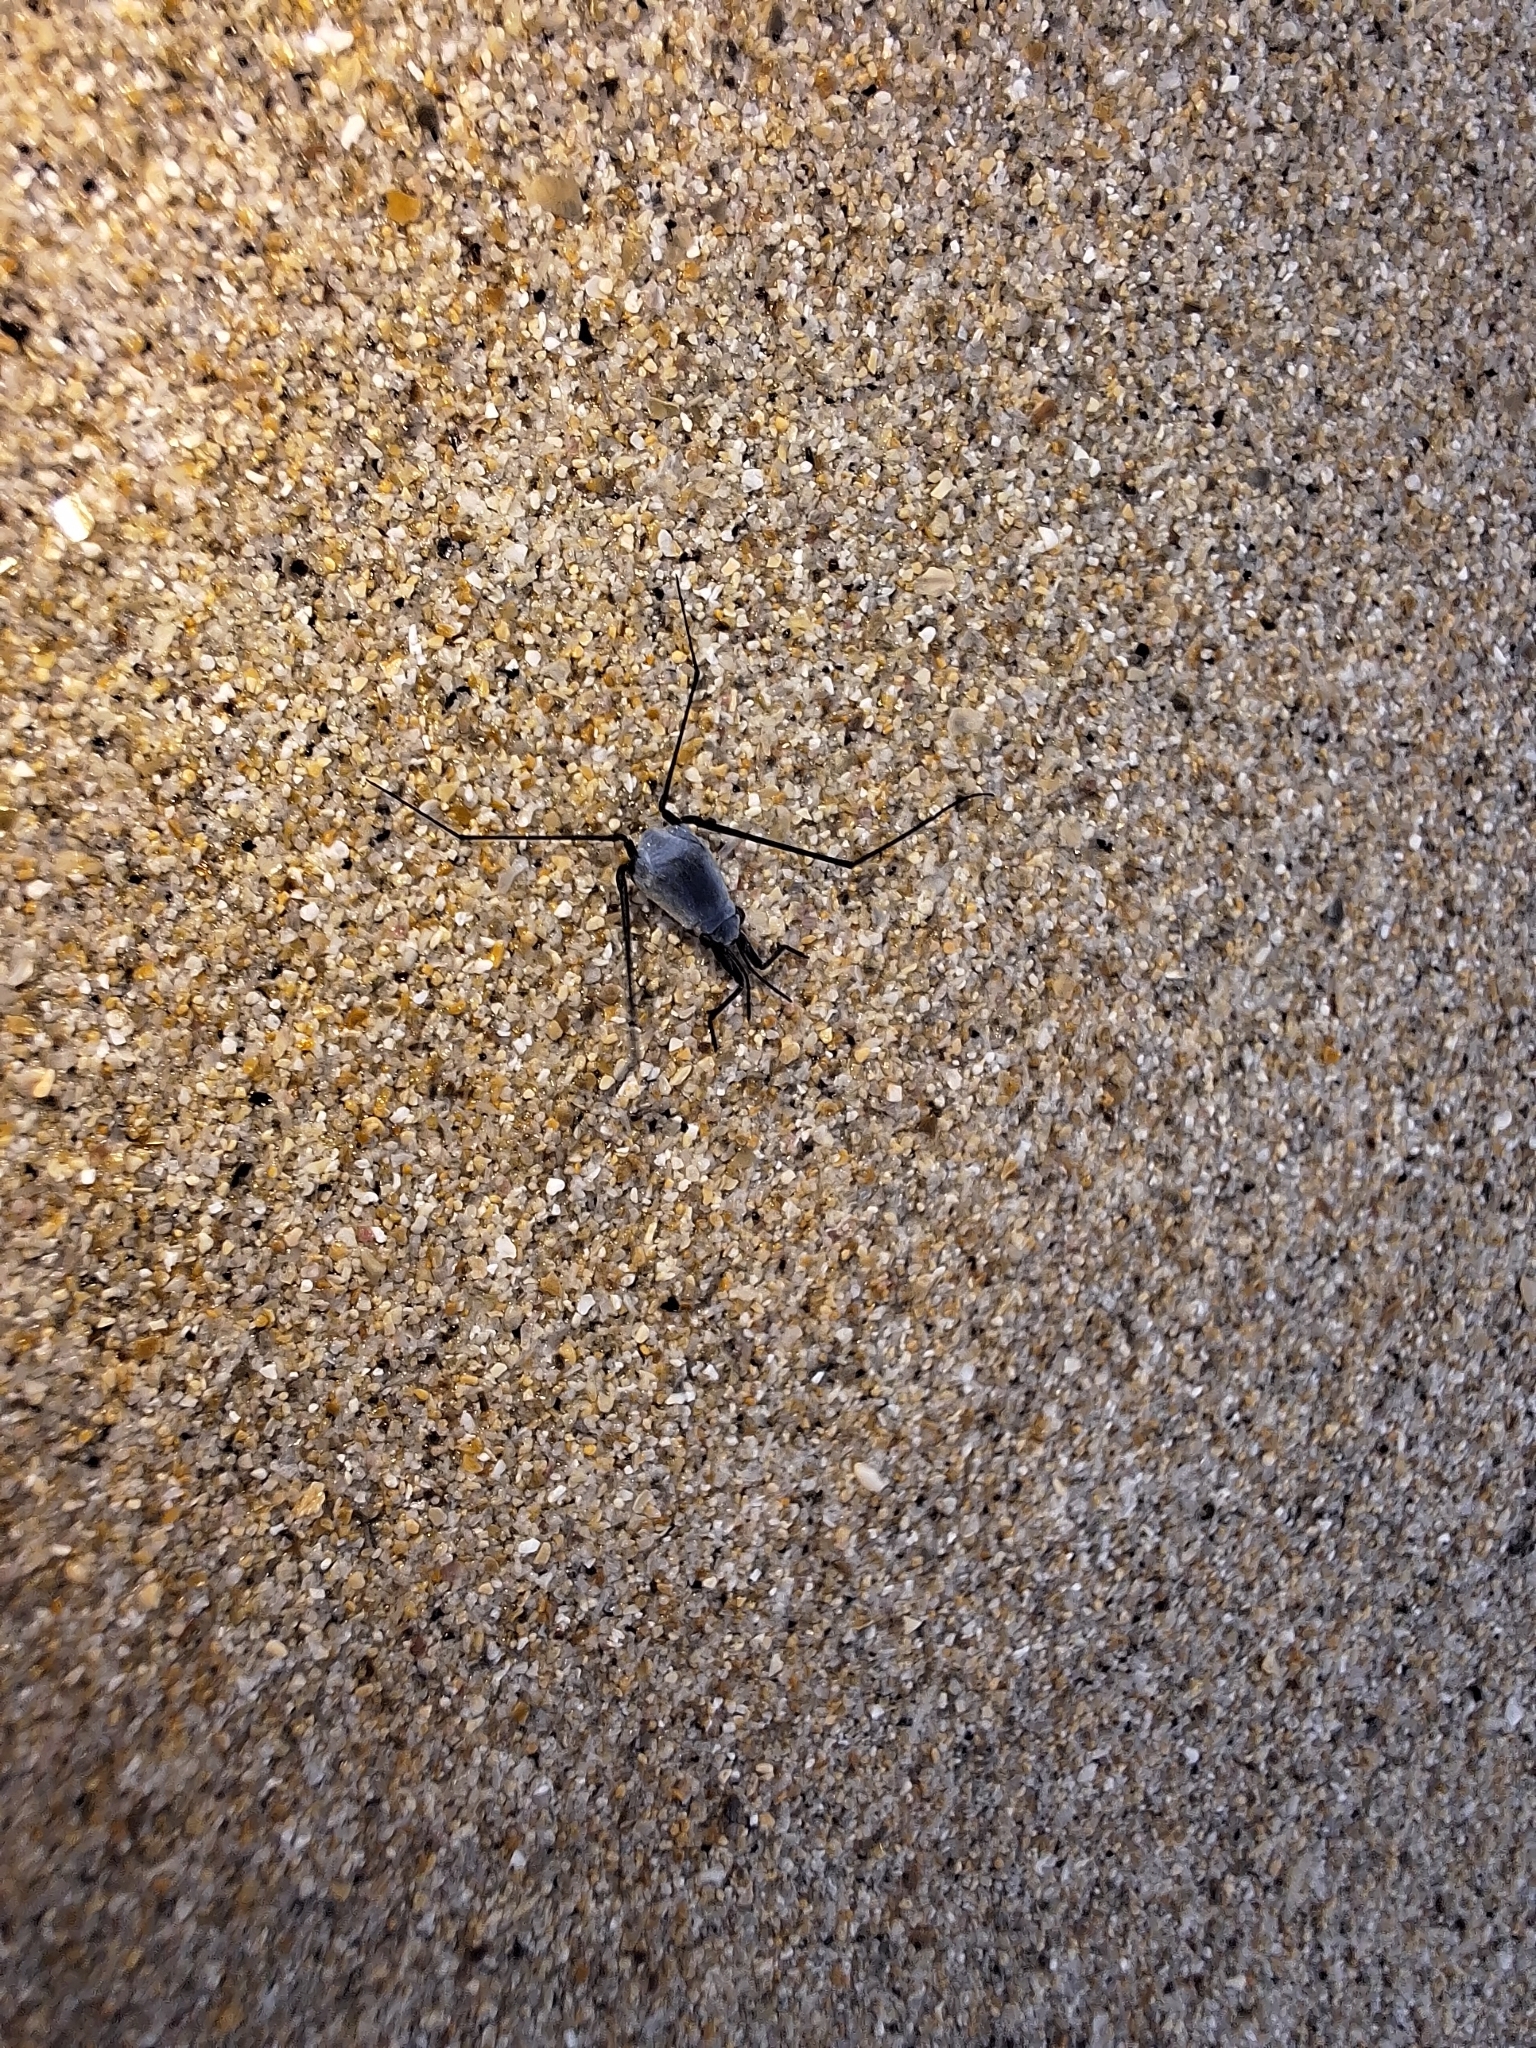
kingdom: Animalia
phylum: Arthropoda
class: Insecta
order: Hemiptera
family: Gerridae
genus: Halobates
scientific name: Halobates
